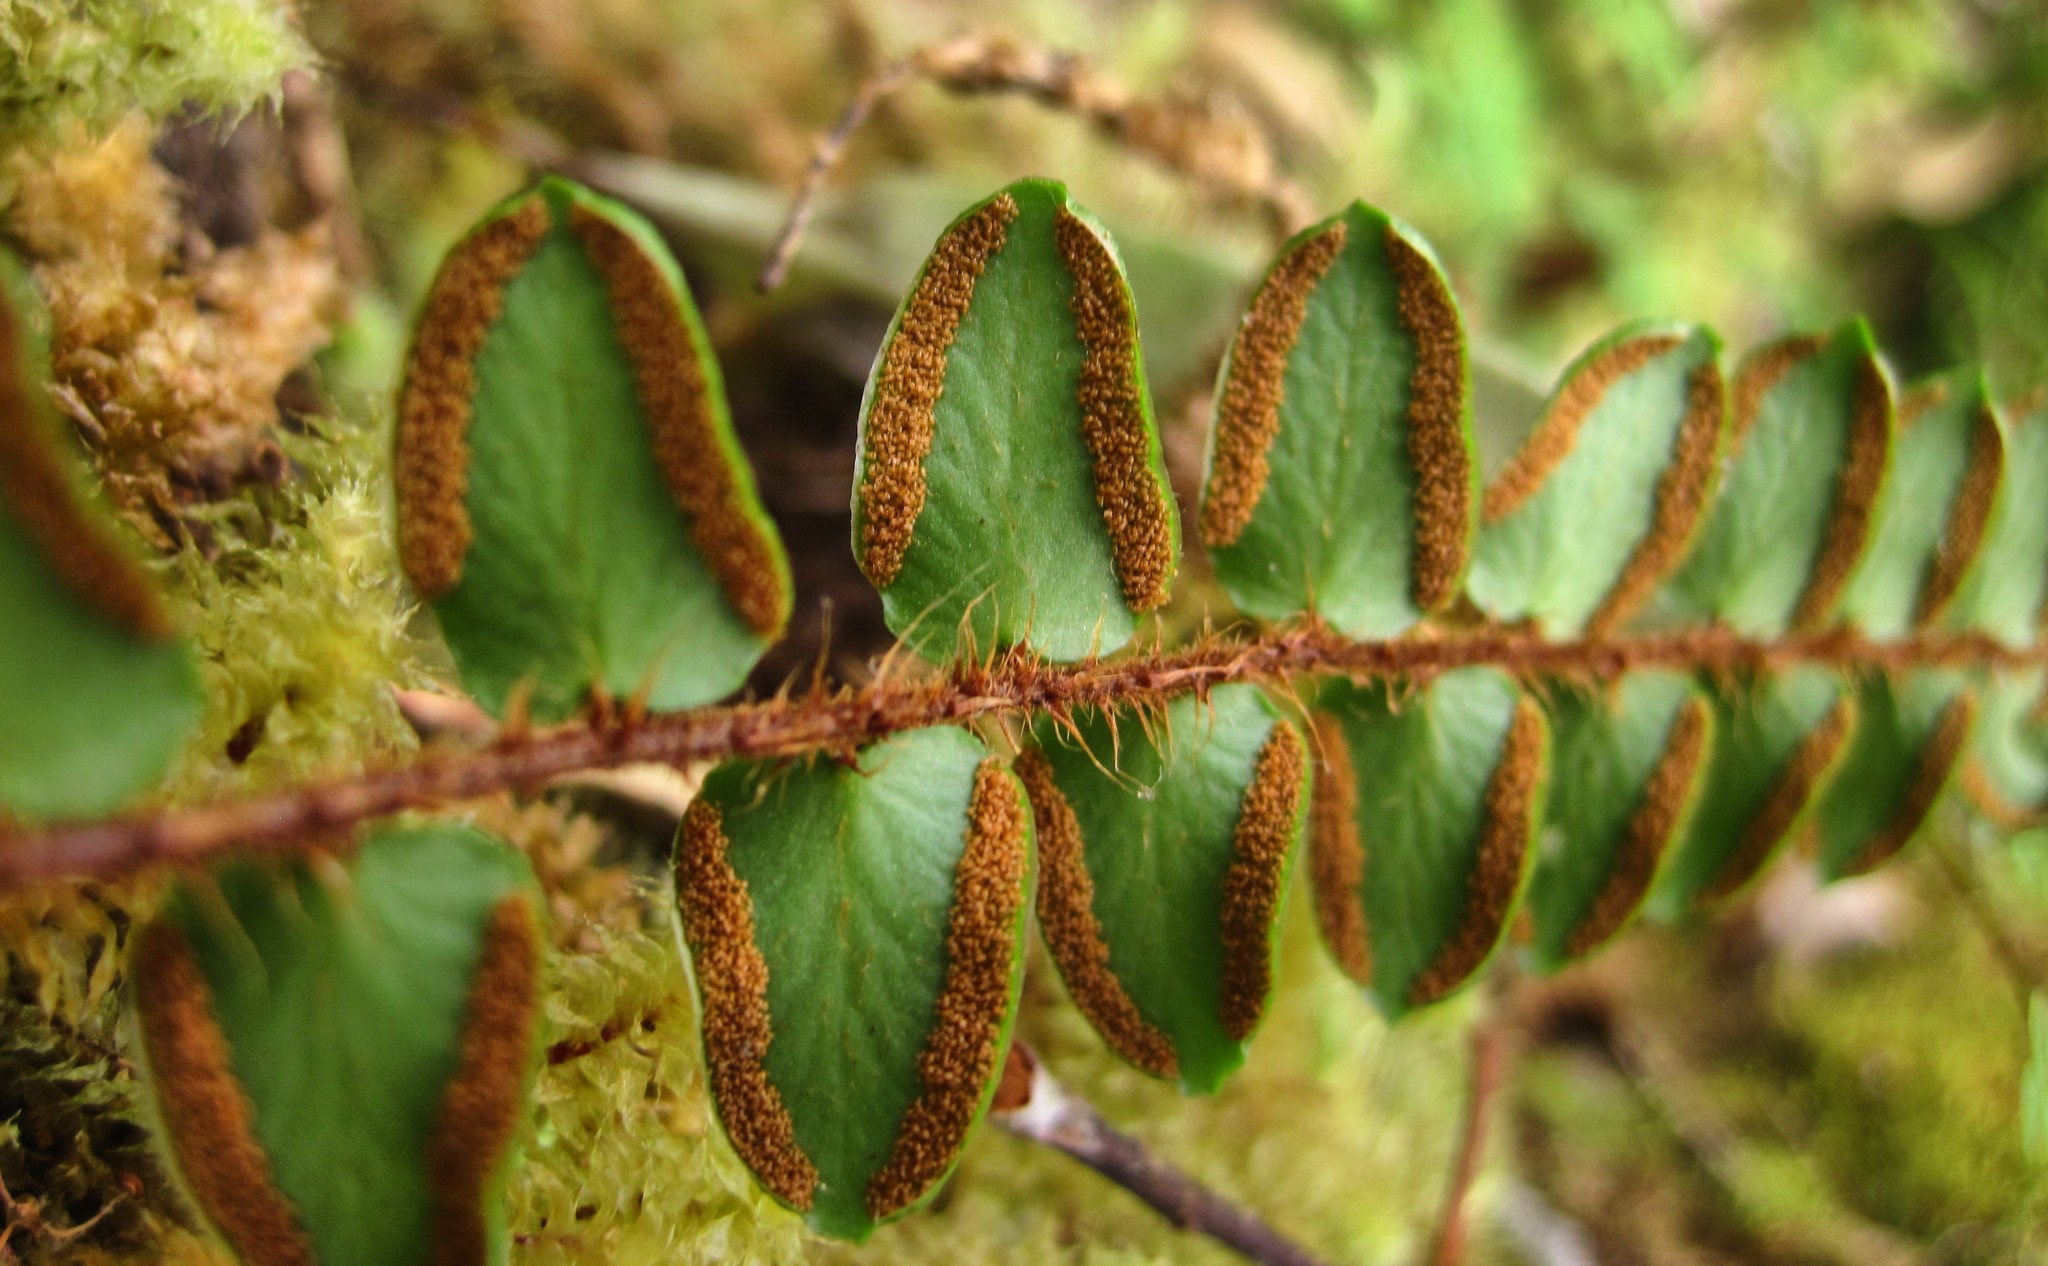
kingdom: Plantae
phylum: Tracheophyta
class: Polypodiopsida
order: Polypodiales
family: Pteridaceae
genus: Pellaea
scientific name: Pellaea rotundifolia
